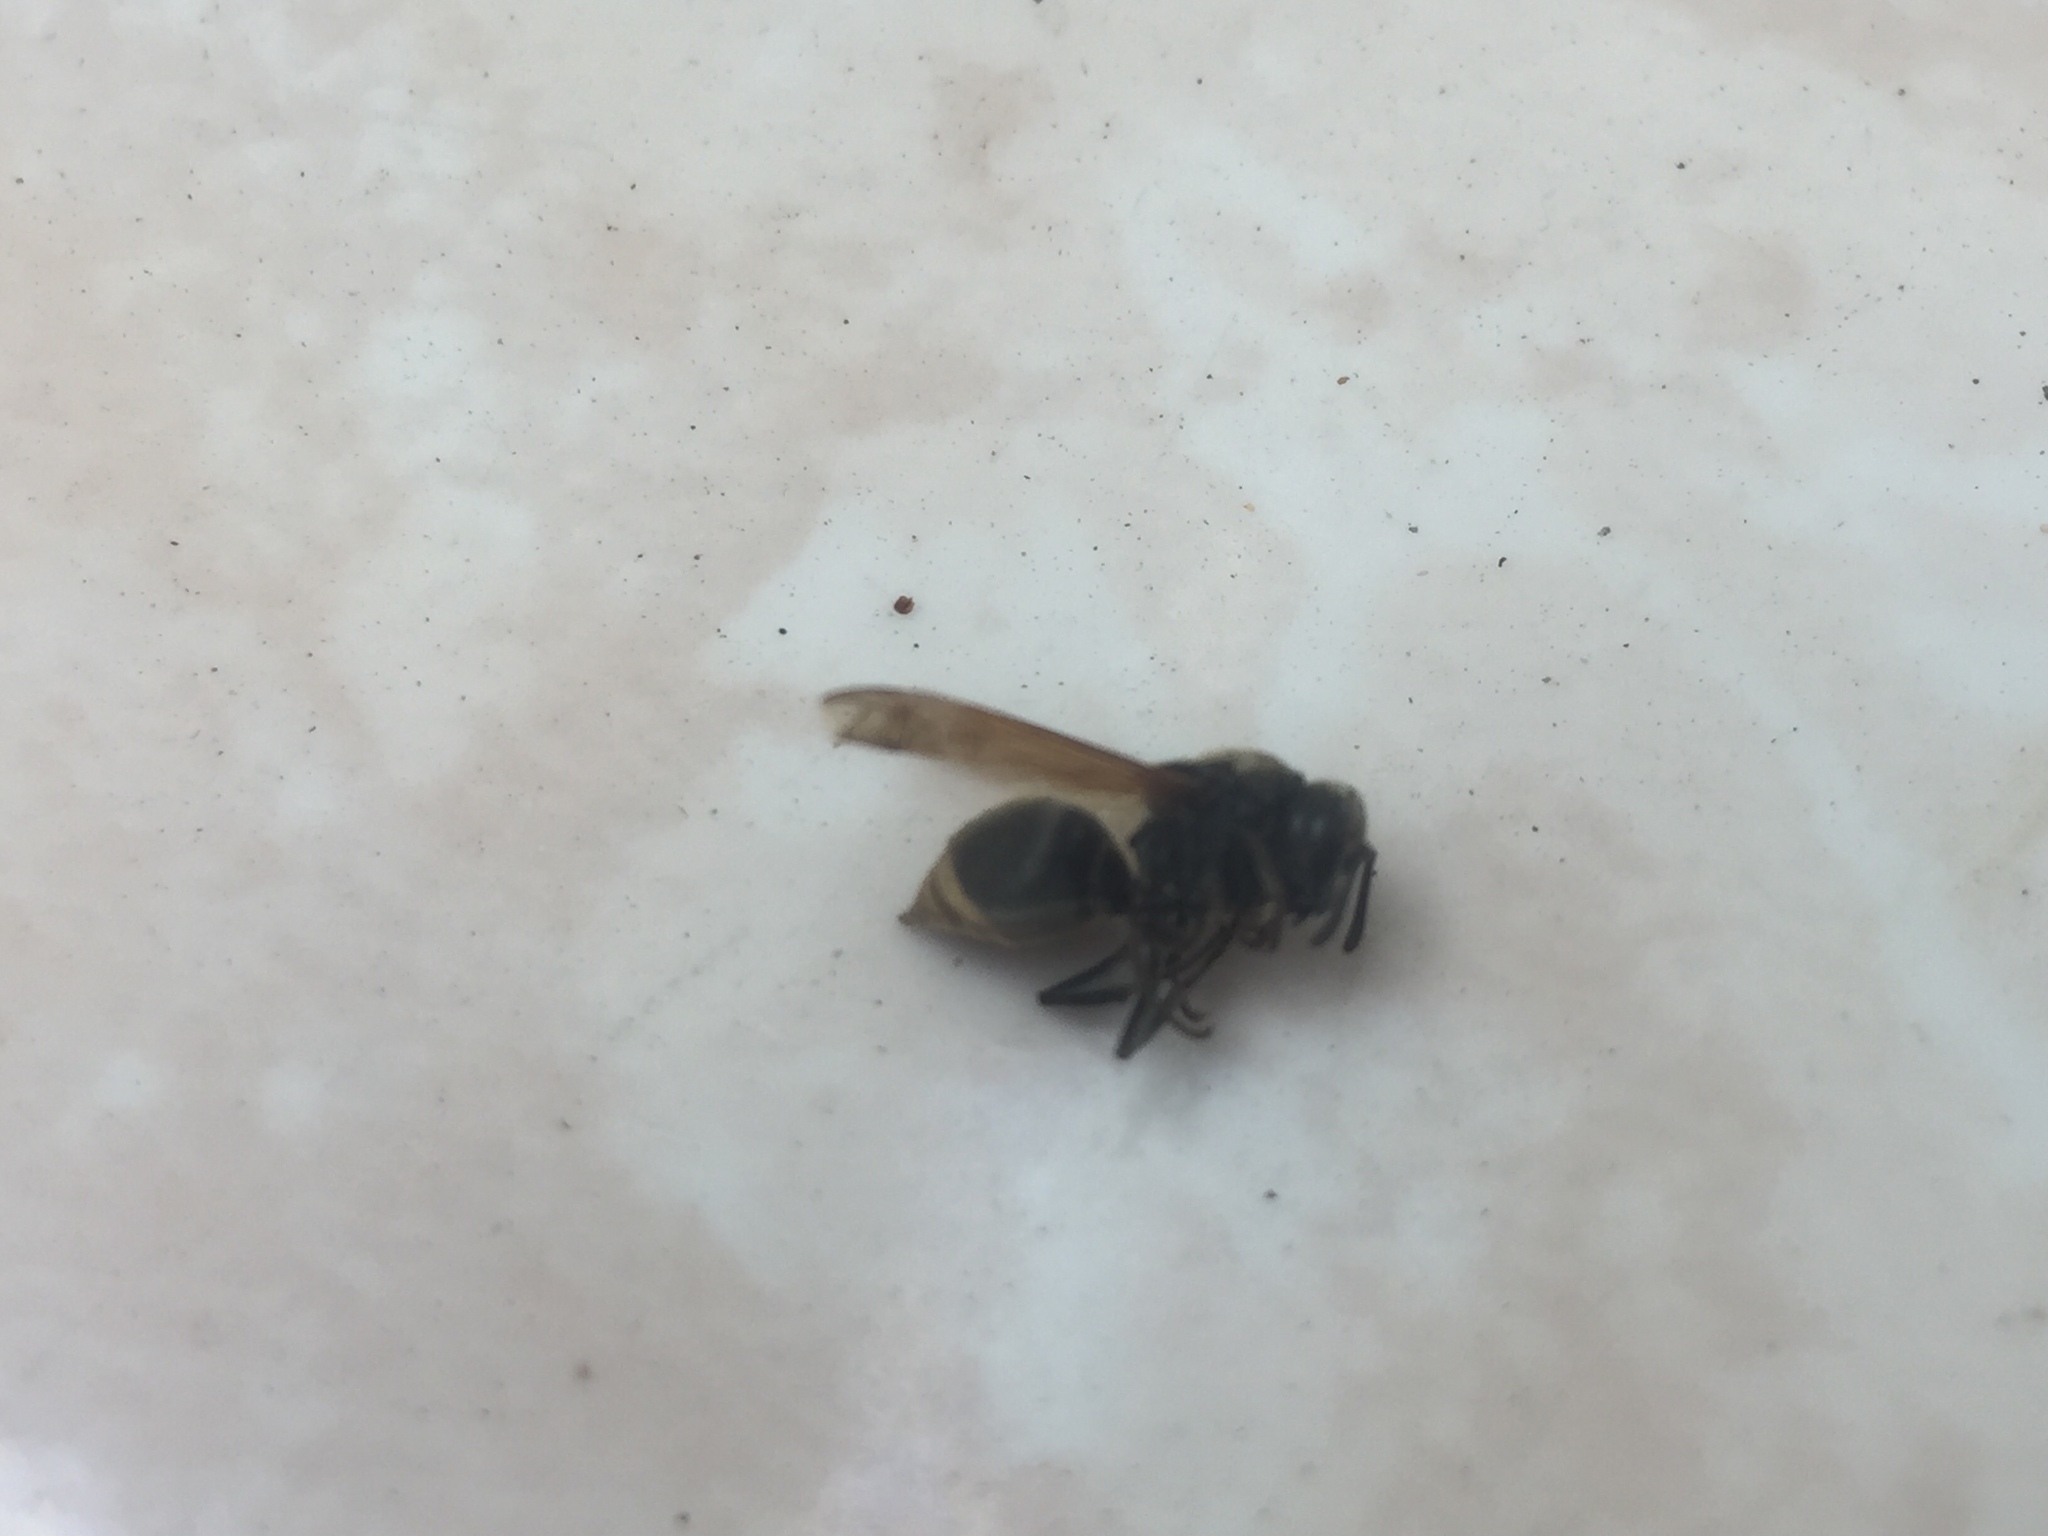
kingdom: Animalia
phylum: Arthropoda
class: Insecta
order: Hymenoptera
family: Vespidae
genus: Brachygastra
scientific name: Brachygastra mellifica
